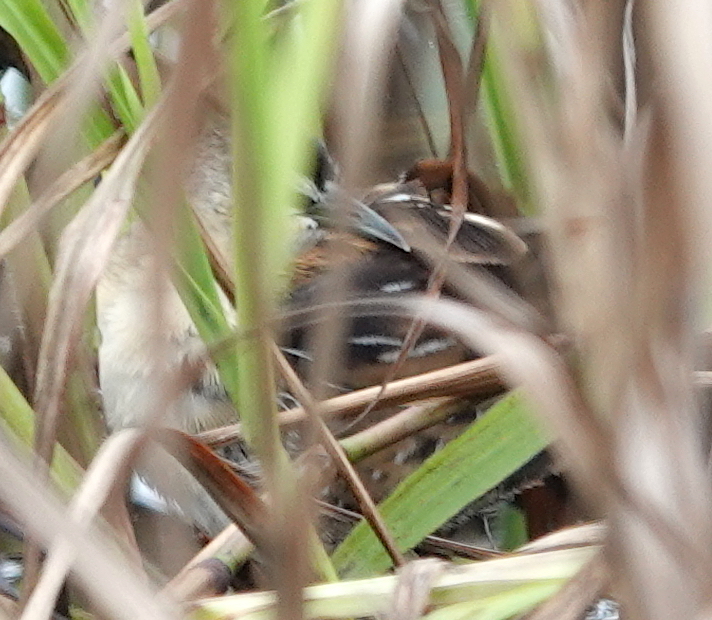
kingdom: Animalia
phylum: Chordata
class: Aves
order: Gruiformes
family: Rallidae
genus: Porzana
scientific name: Porzana flaviventer
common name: Yellow-breasted crake
